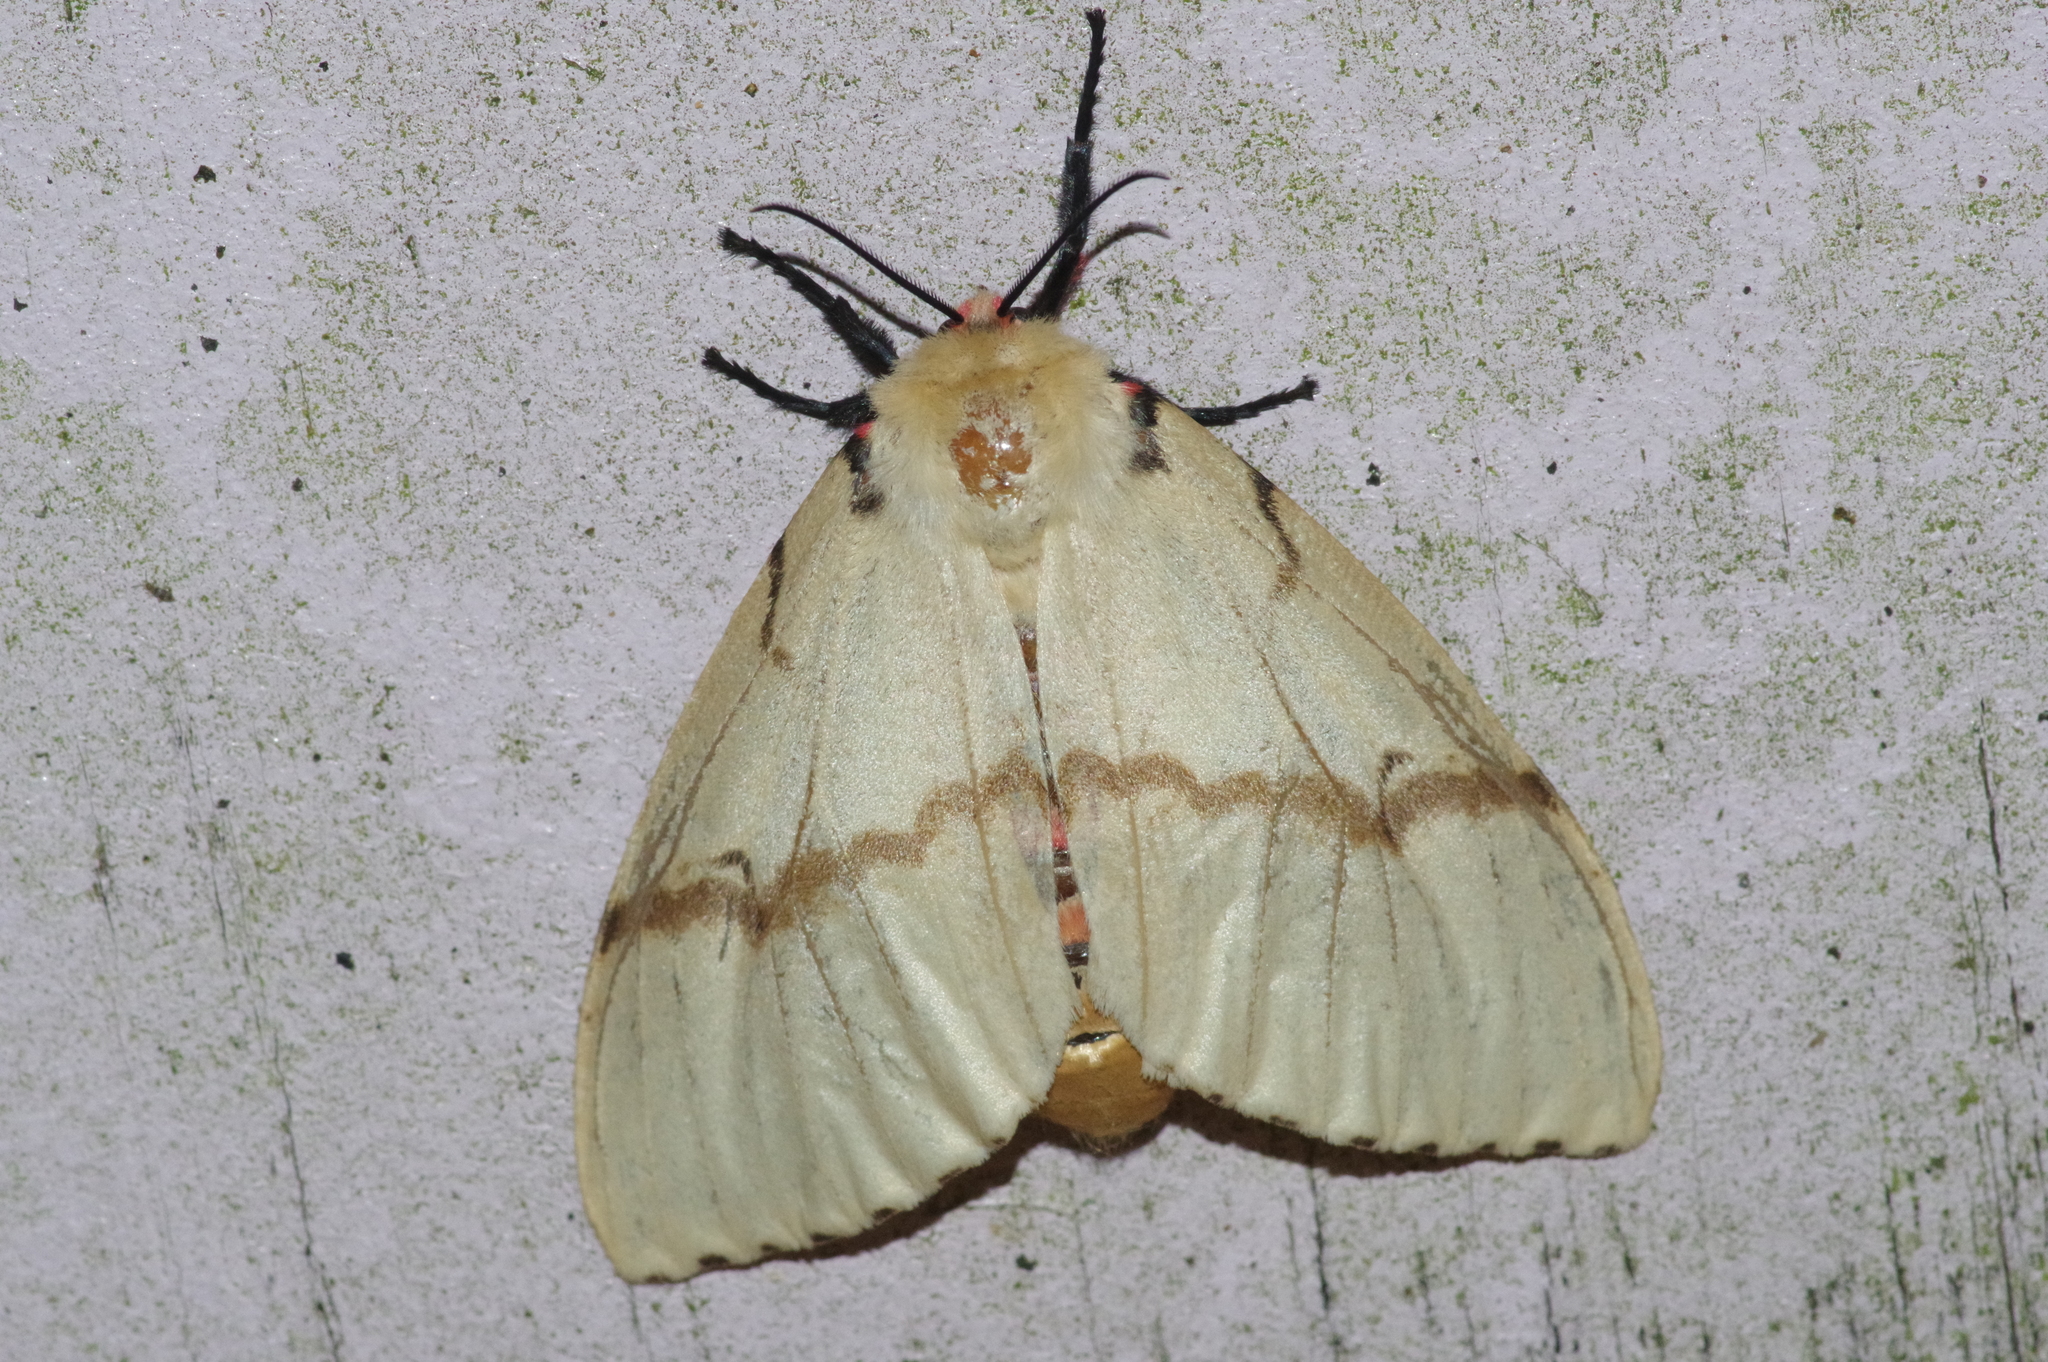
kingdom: Animalia
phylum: Arthropoda
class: Insecta
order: Lepidoptera
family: Erebidae
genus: Lymantria
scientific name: Lymantria xylina
